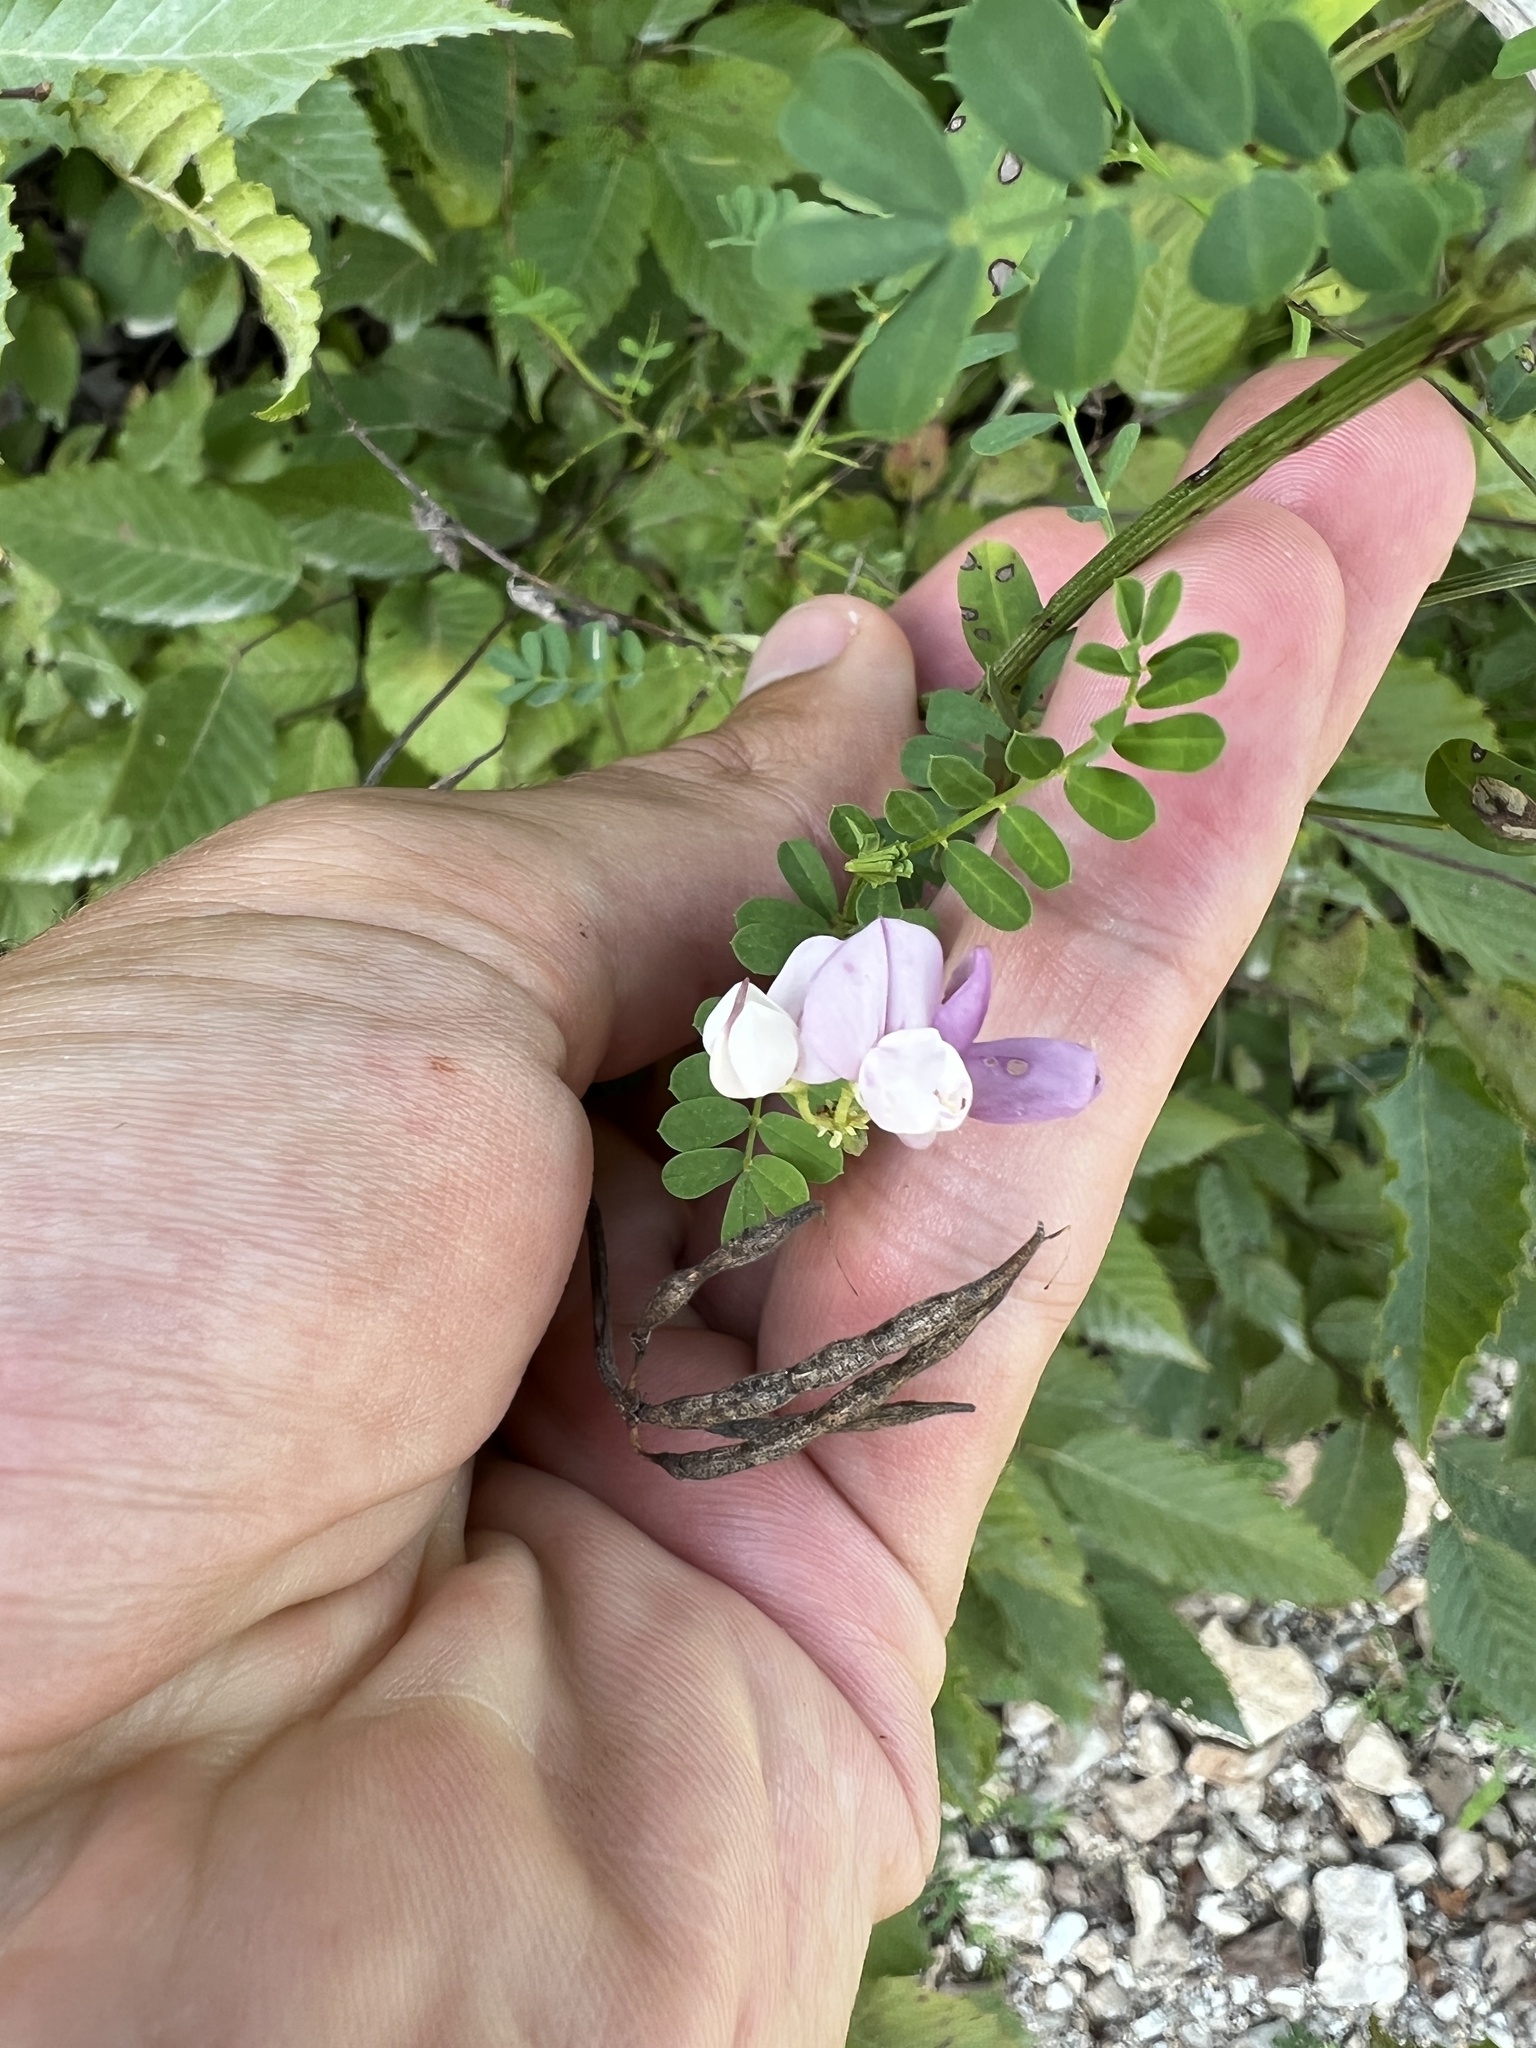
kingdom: Plantae
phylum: Tracheophyta
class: Magnoliopsida
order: Fabales
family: Fabaceae
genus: Coronilla
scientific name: Coronilla varia
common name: Crownvetch
